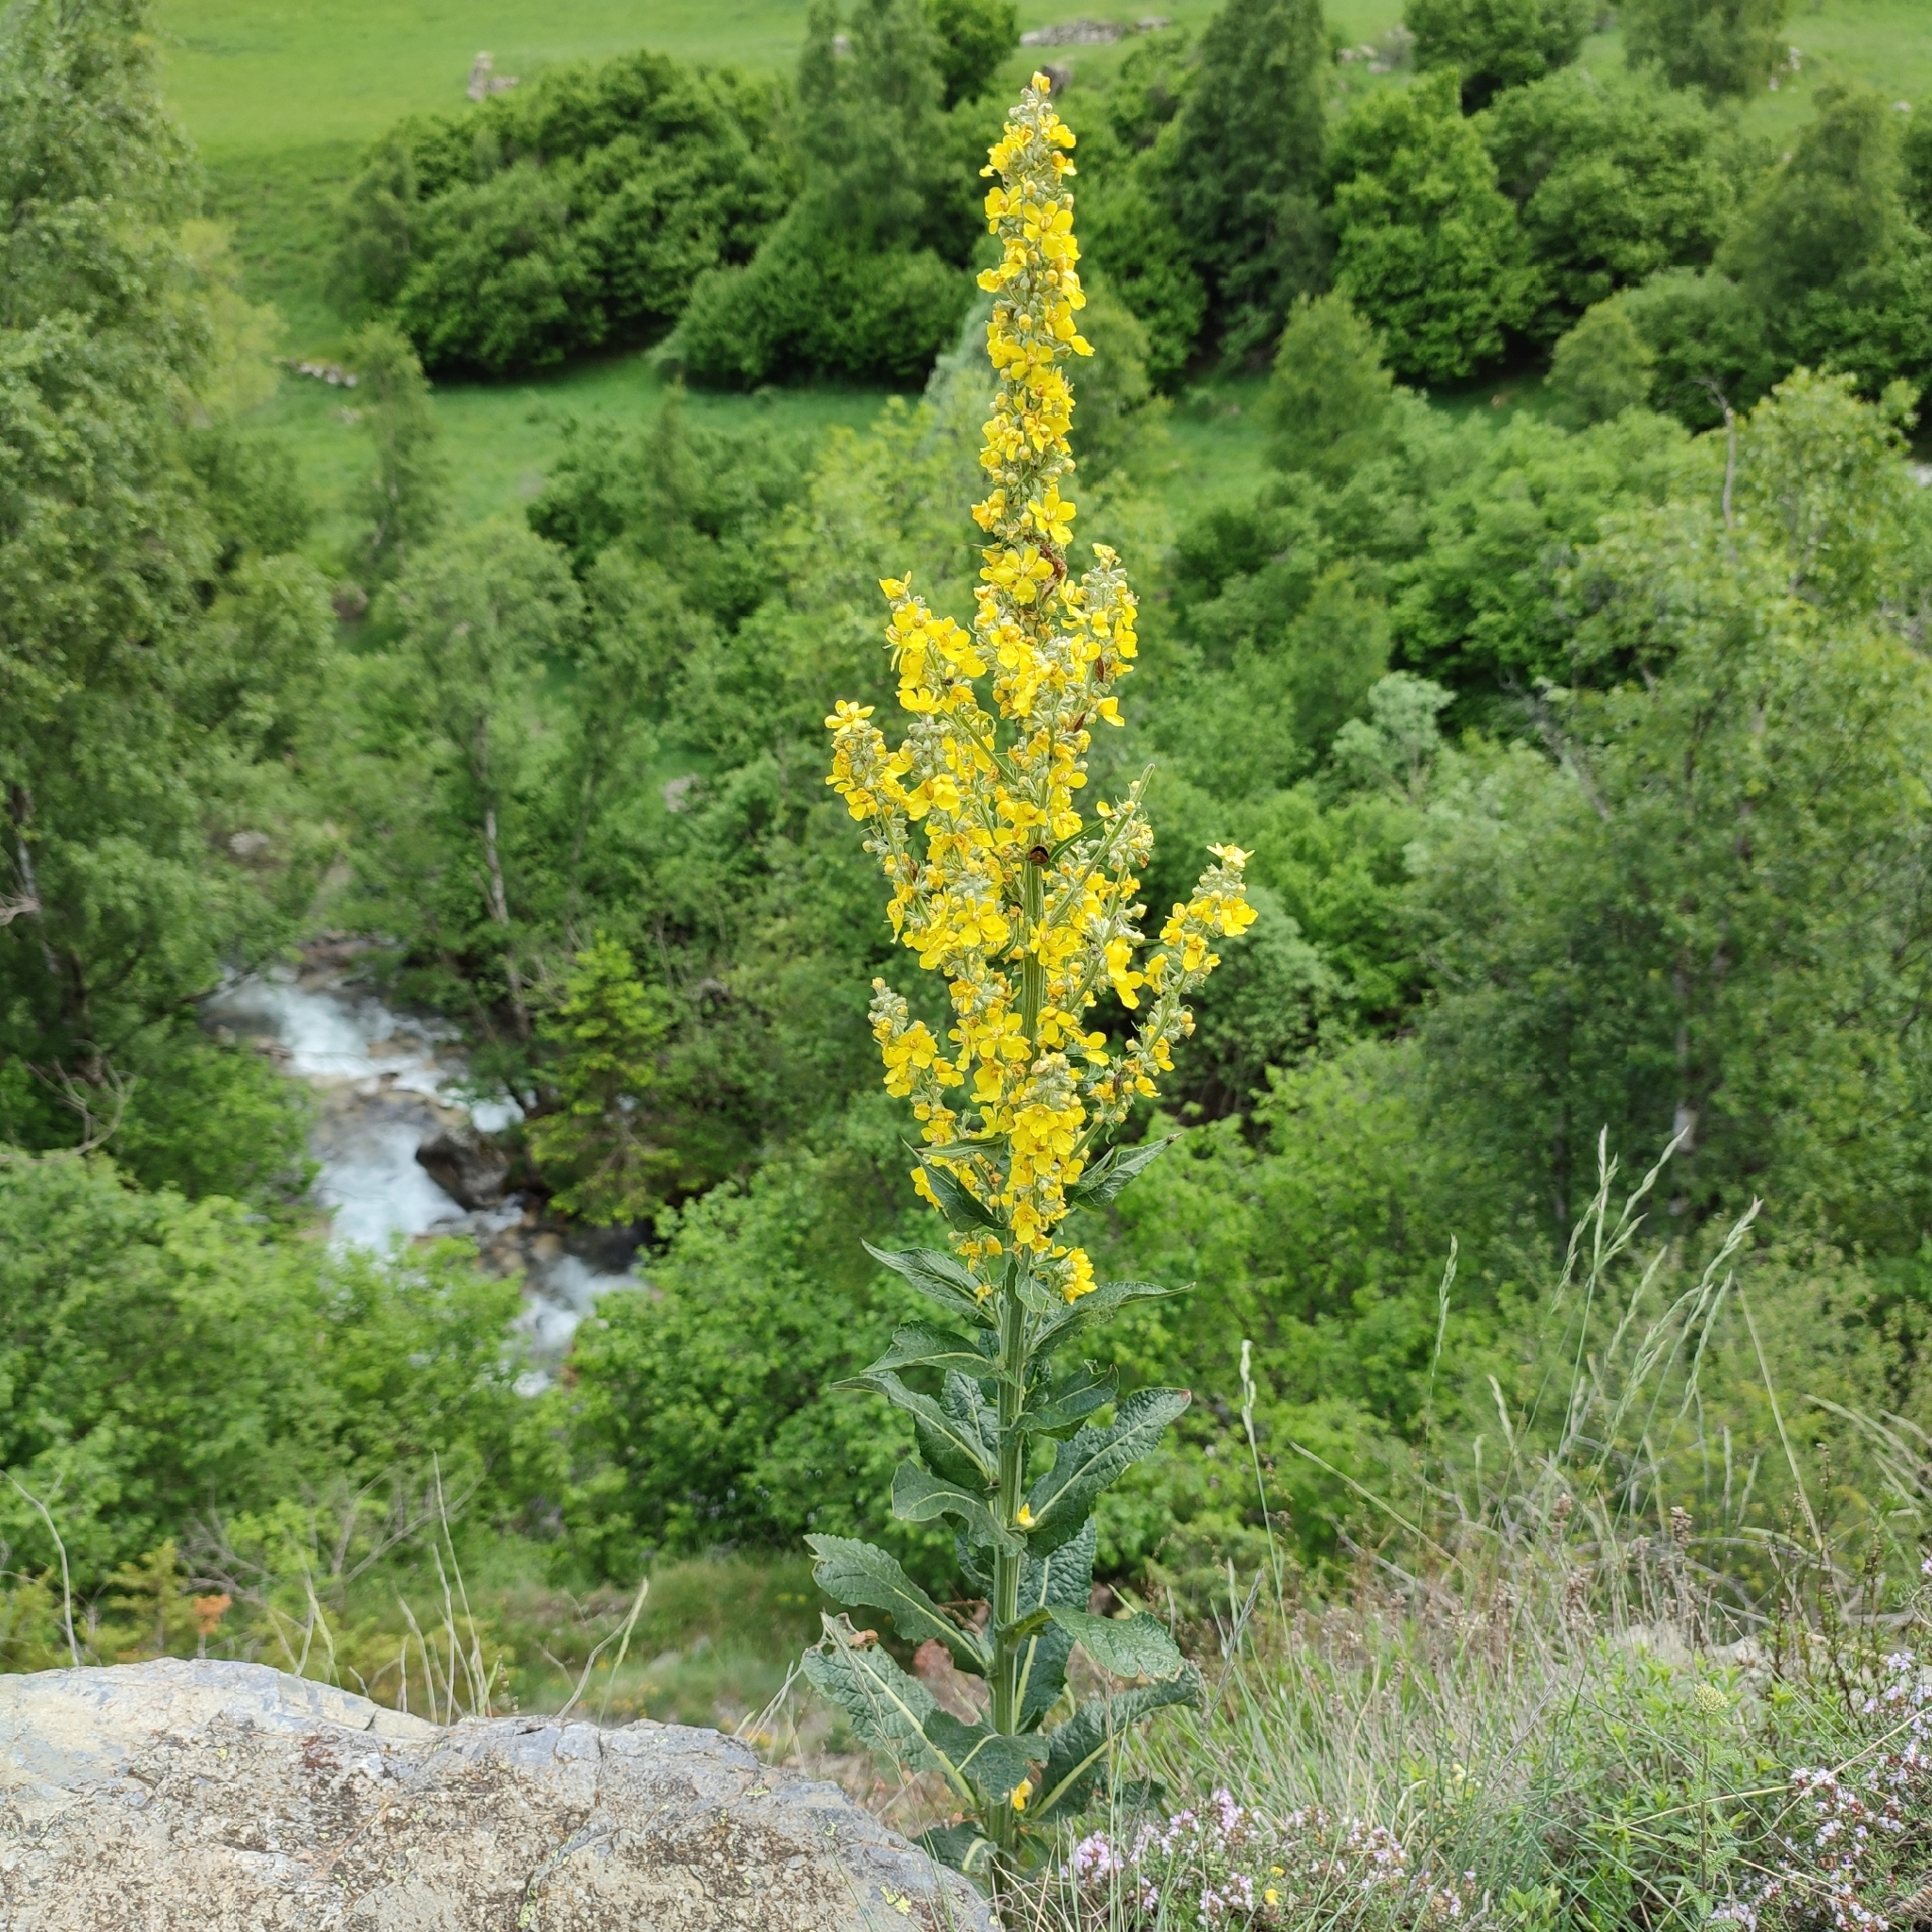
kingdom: Plantae
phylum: Tracheophyta
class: Magnoliopsida
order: Lamiales
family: Scrophulariaceae
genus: Verbascum
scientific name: Verbascum lychnitis
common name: White mullein
